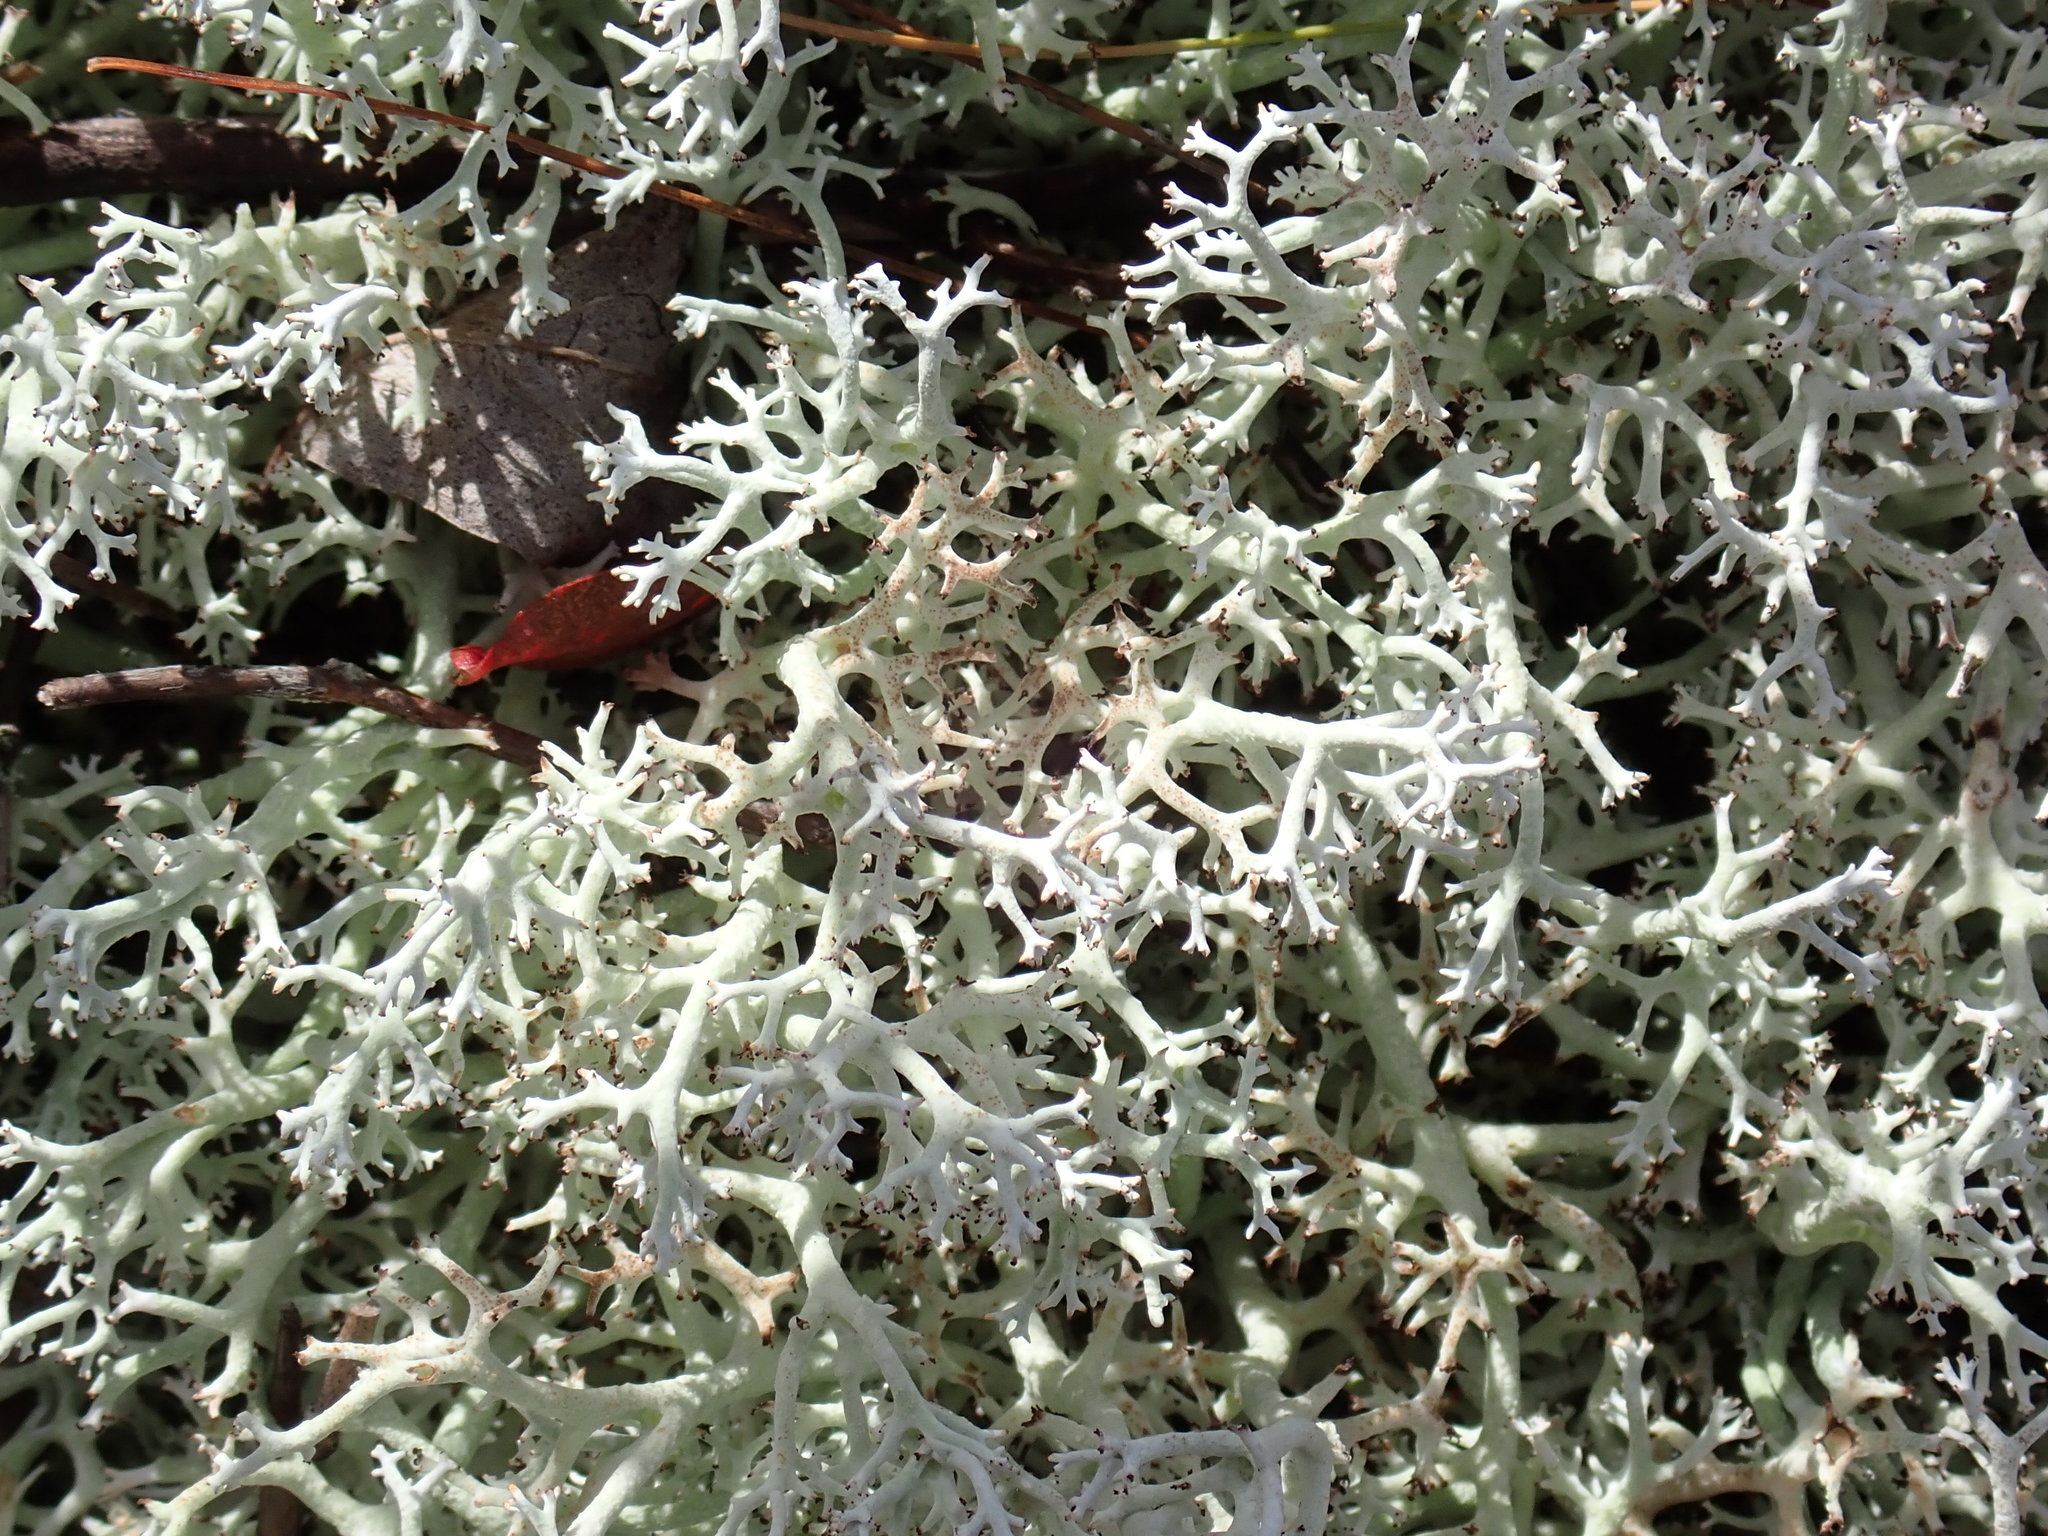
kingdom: Fungi
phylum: Ascomycota
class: Lecanoromycetes
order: Lecanorales
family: Cladoniaceae
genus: Cladonia
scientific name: Cladonia
